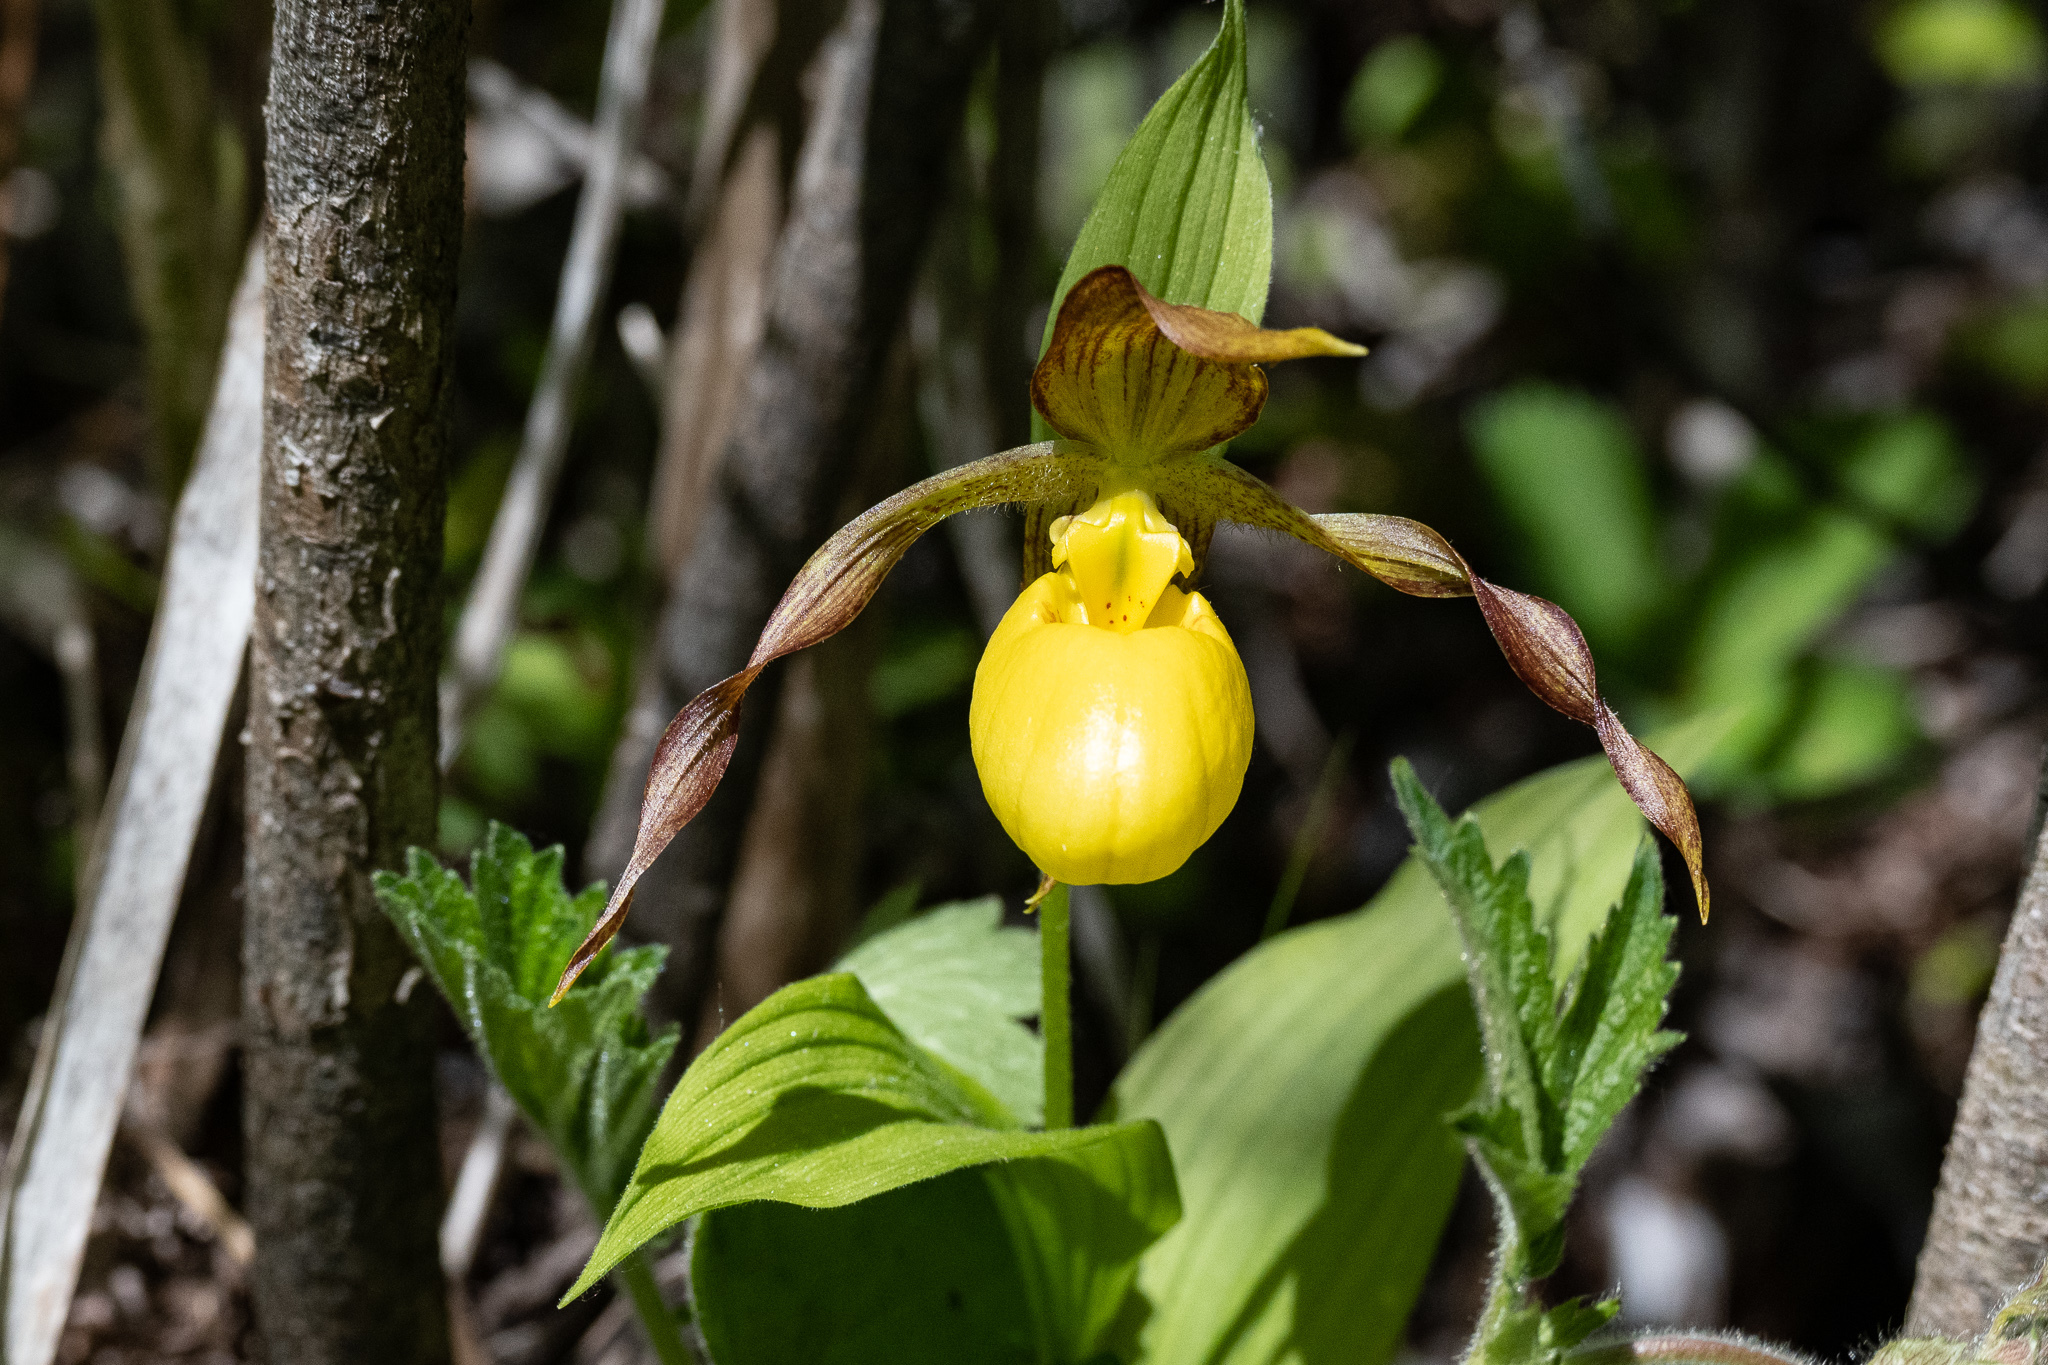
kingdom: Plantae
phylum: Tracheophyta
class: Liliopsida
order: Asparagales
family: Orchidaceae
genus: Cypripedium
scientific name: Cypripedium parviflorum
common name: American yellow lady's-slipper
